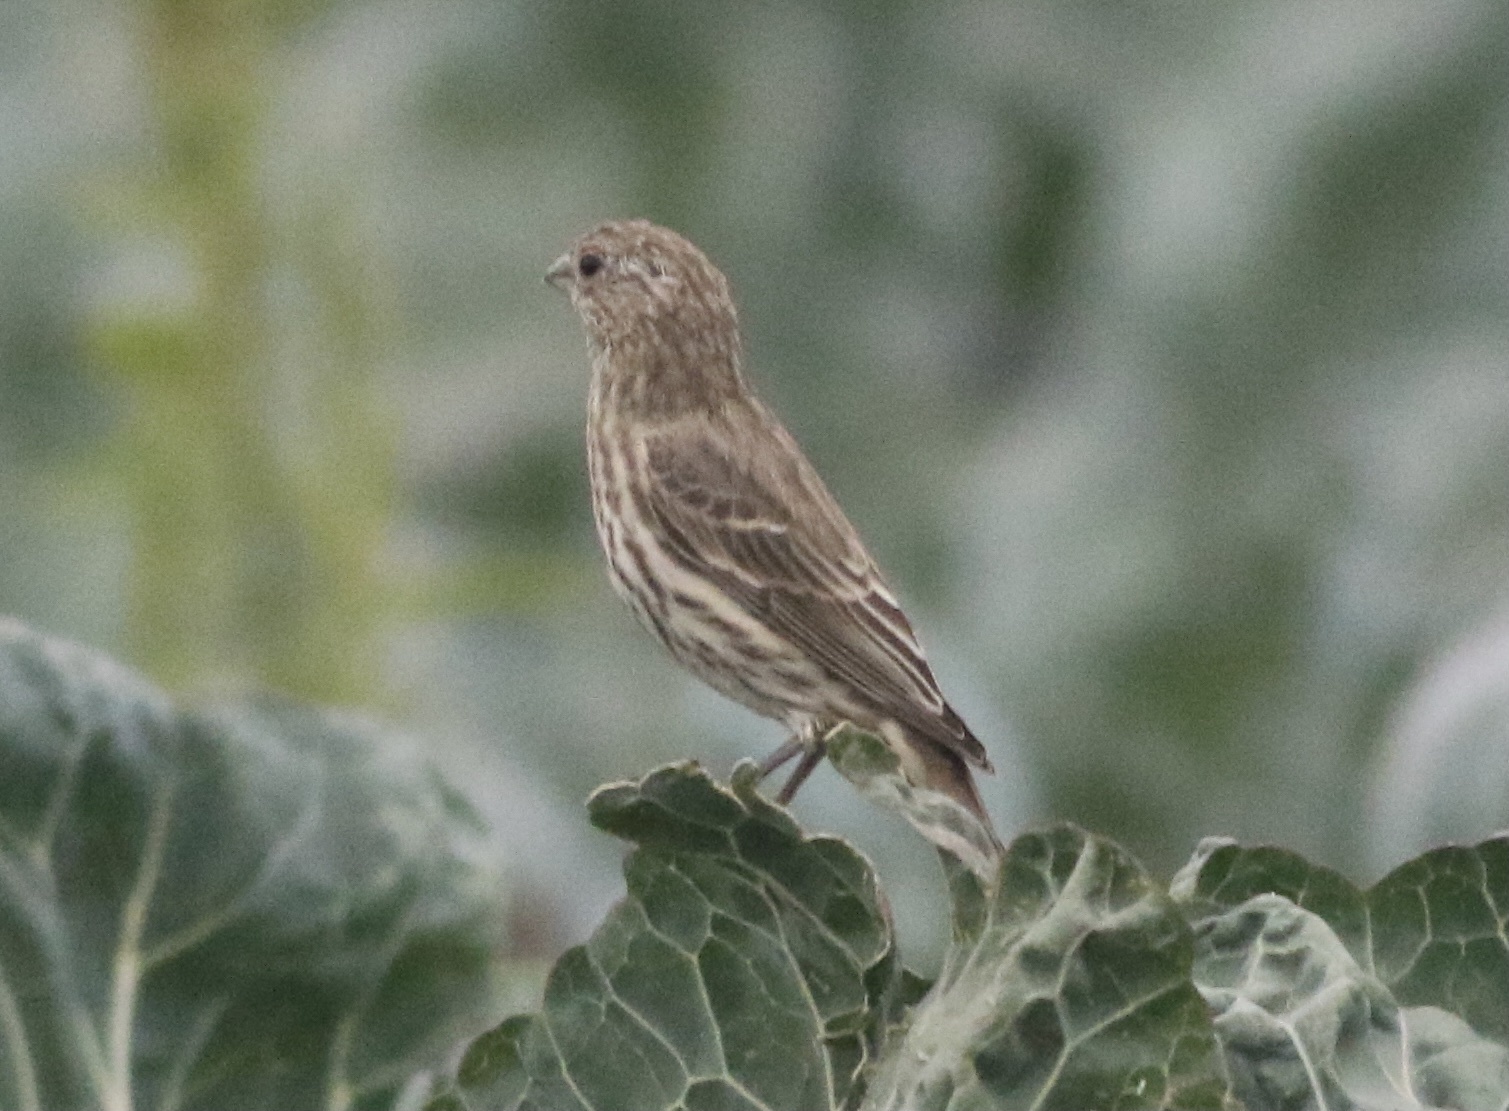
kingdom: Animalia
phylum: Chordata
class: Aves
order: Passeriformes
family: Fringillidae
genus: Haemorhous
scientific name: Haemorhous mexicanus
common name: House finch
